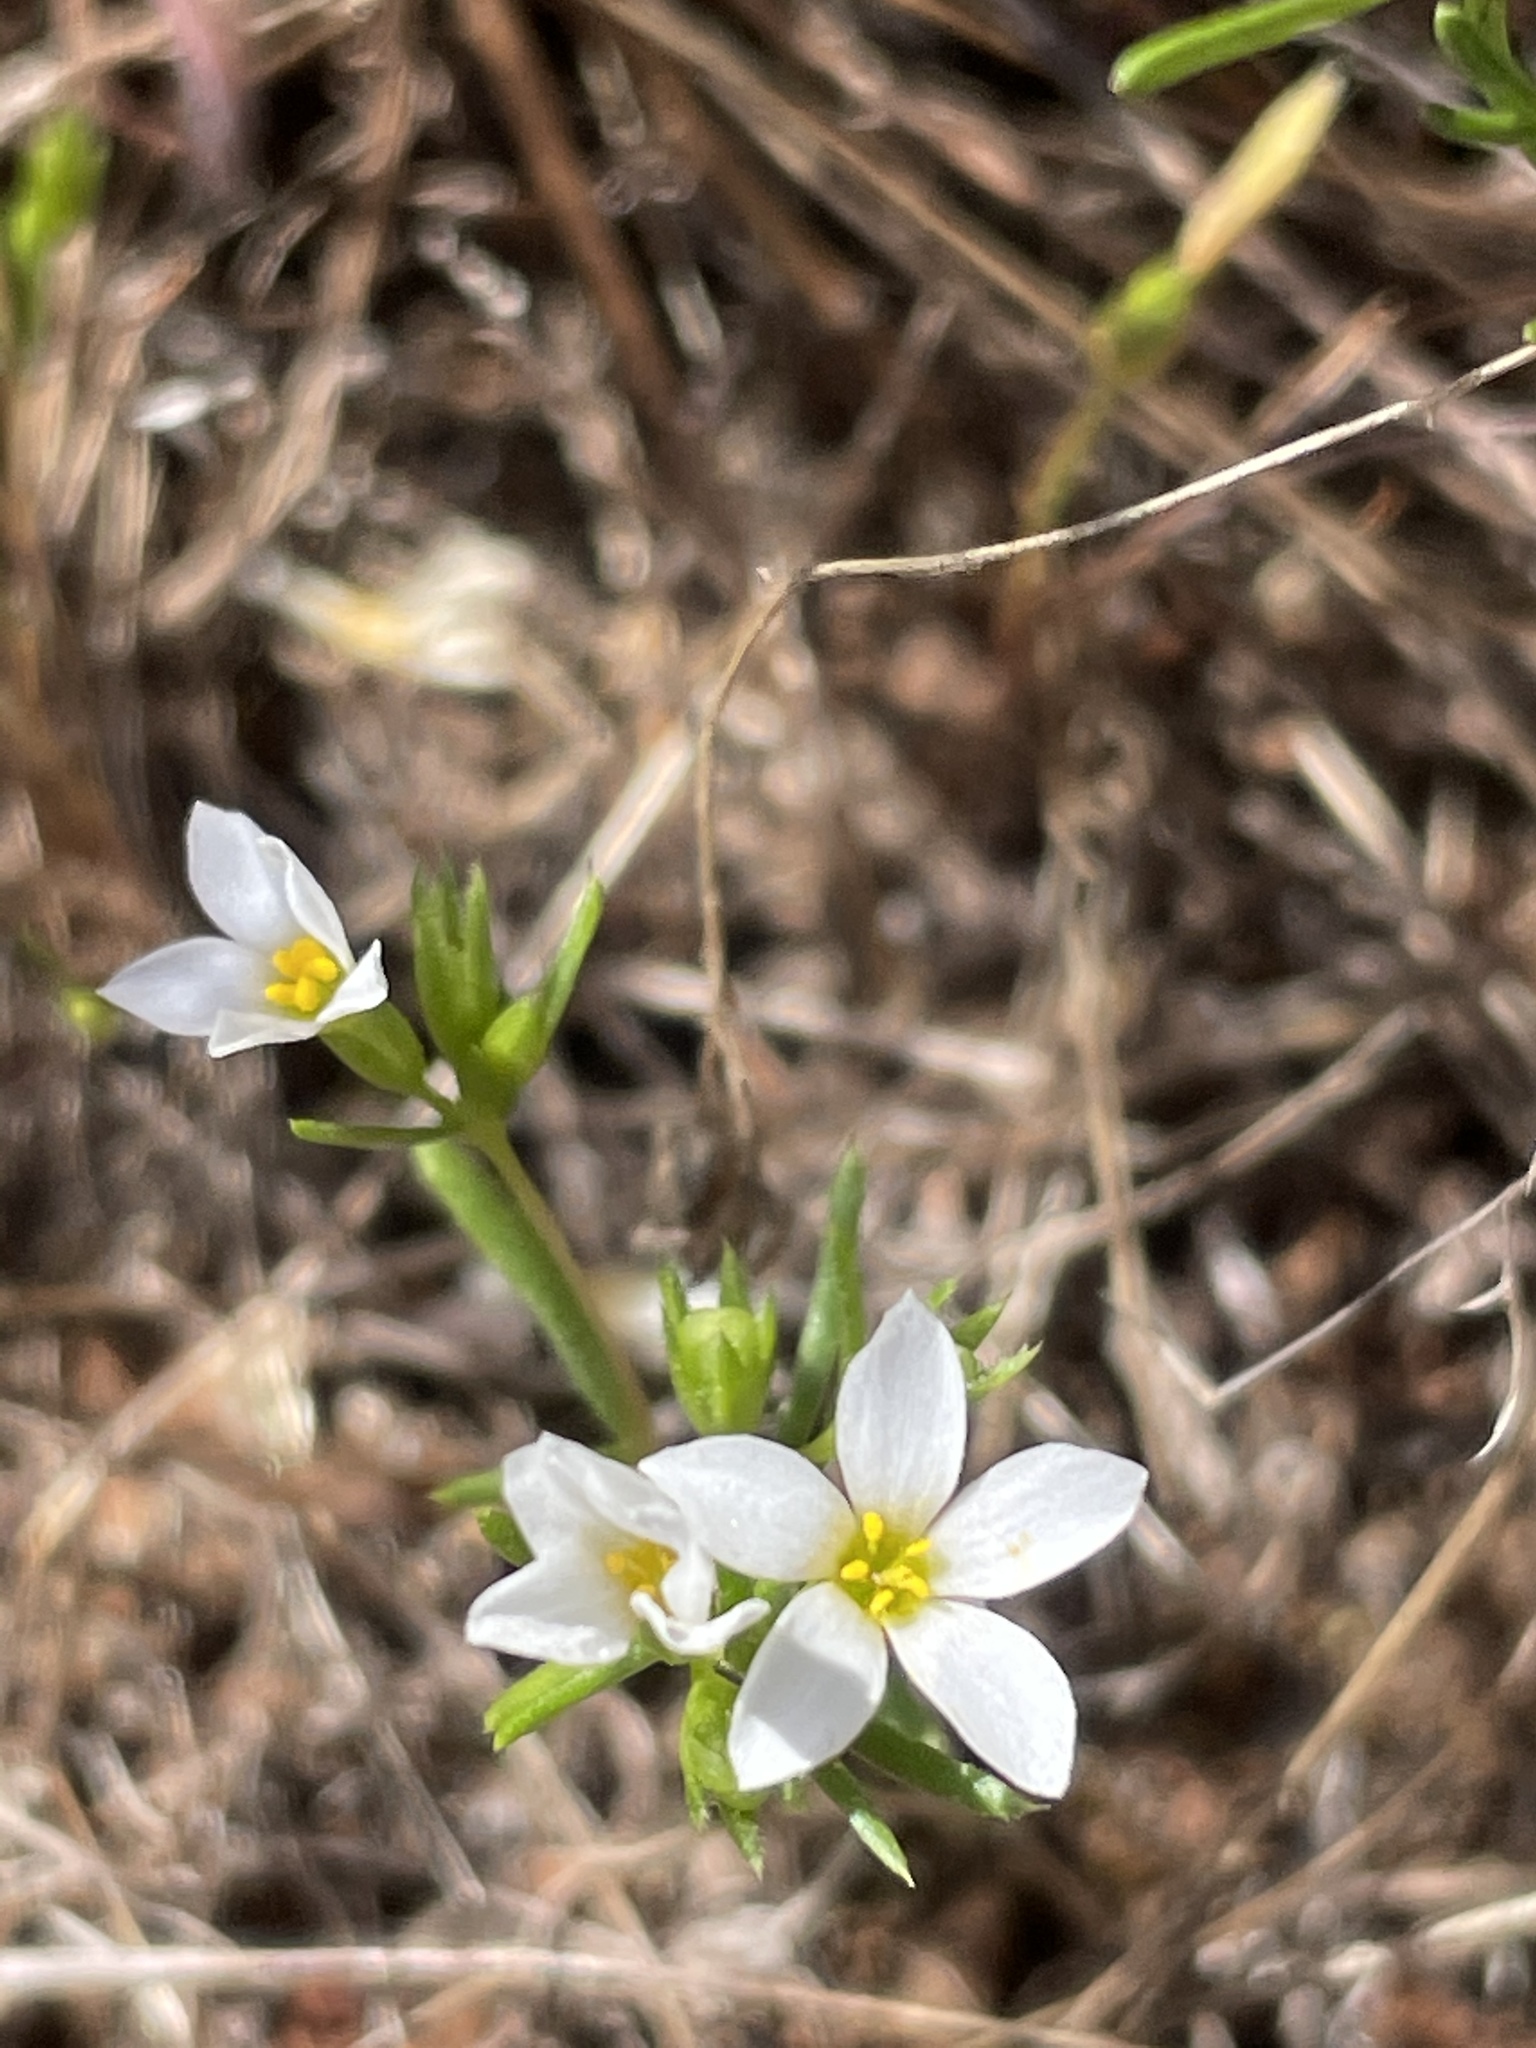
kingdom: Plantae
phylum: Tracheophyta
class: Magnoliopsida
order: Ericales
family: Polemoniaceae
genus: Leptosiphon
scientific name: Leptosiphon laxus
